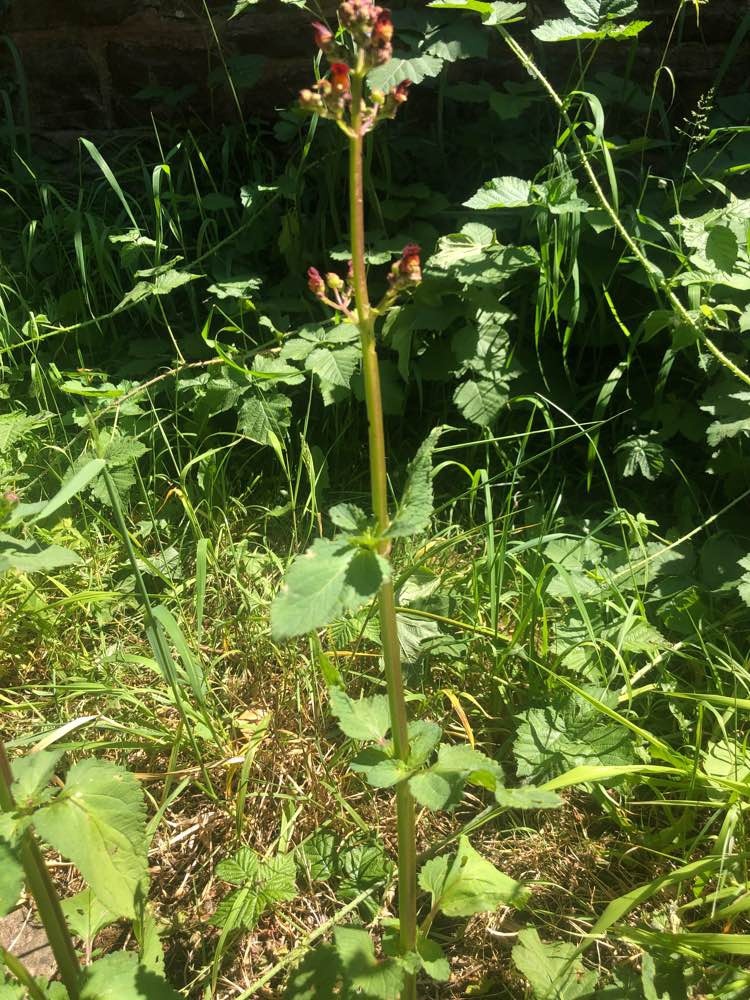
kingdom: Plantae
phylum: Tracheophyta
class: Magnoliopsida
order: Lamiales
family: Scrophulariaceae
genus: Scrophularia
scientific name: Scrophularia nodosa
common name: Common figwort
